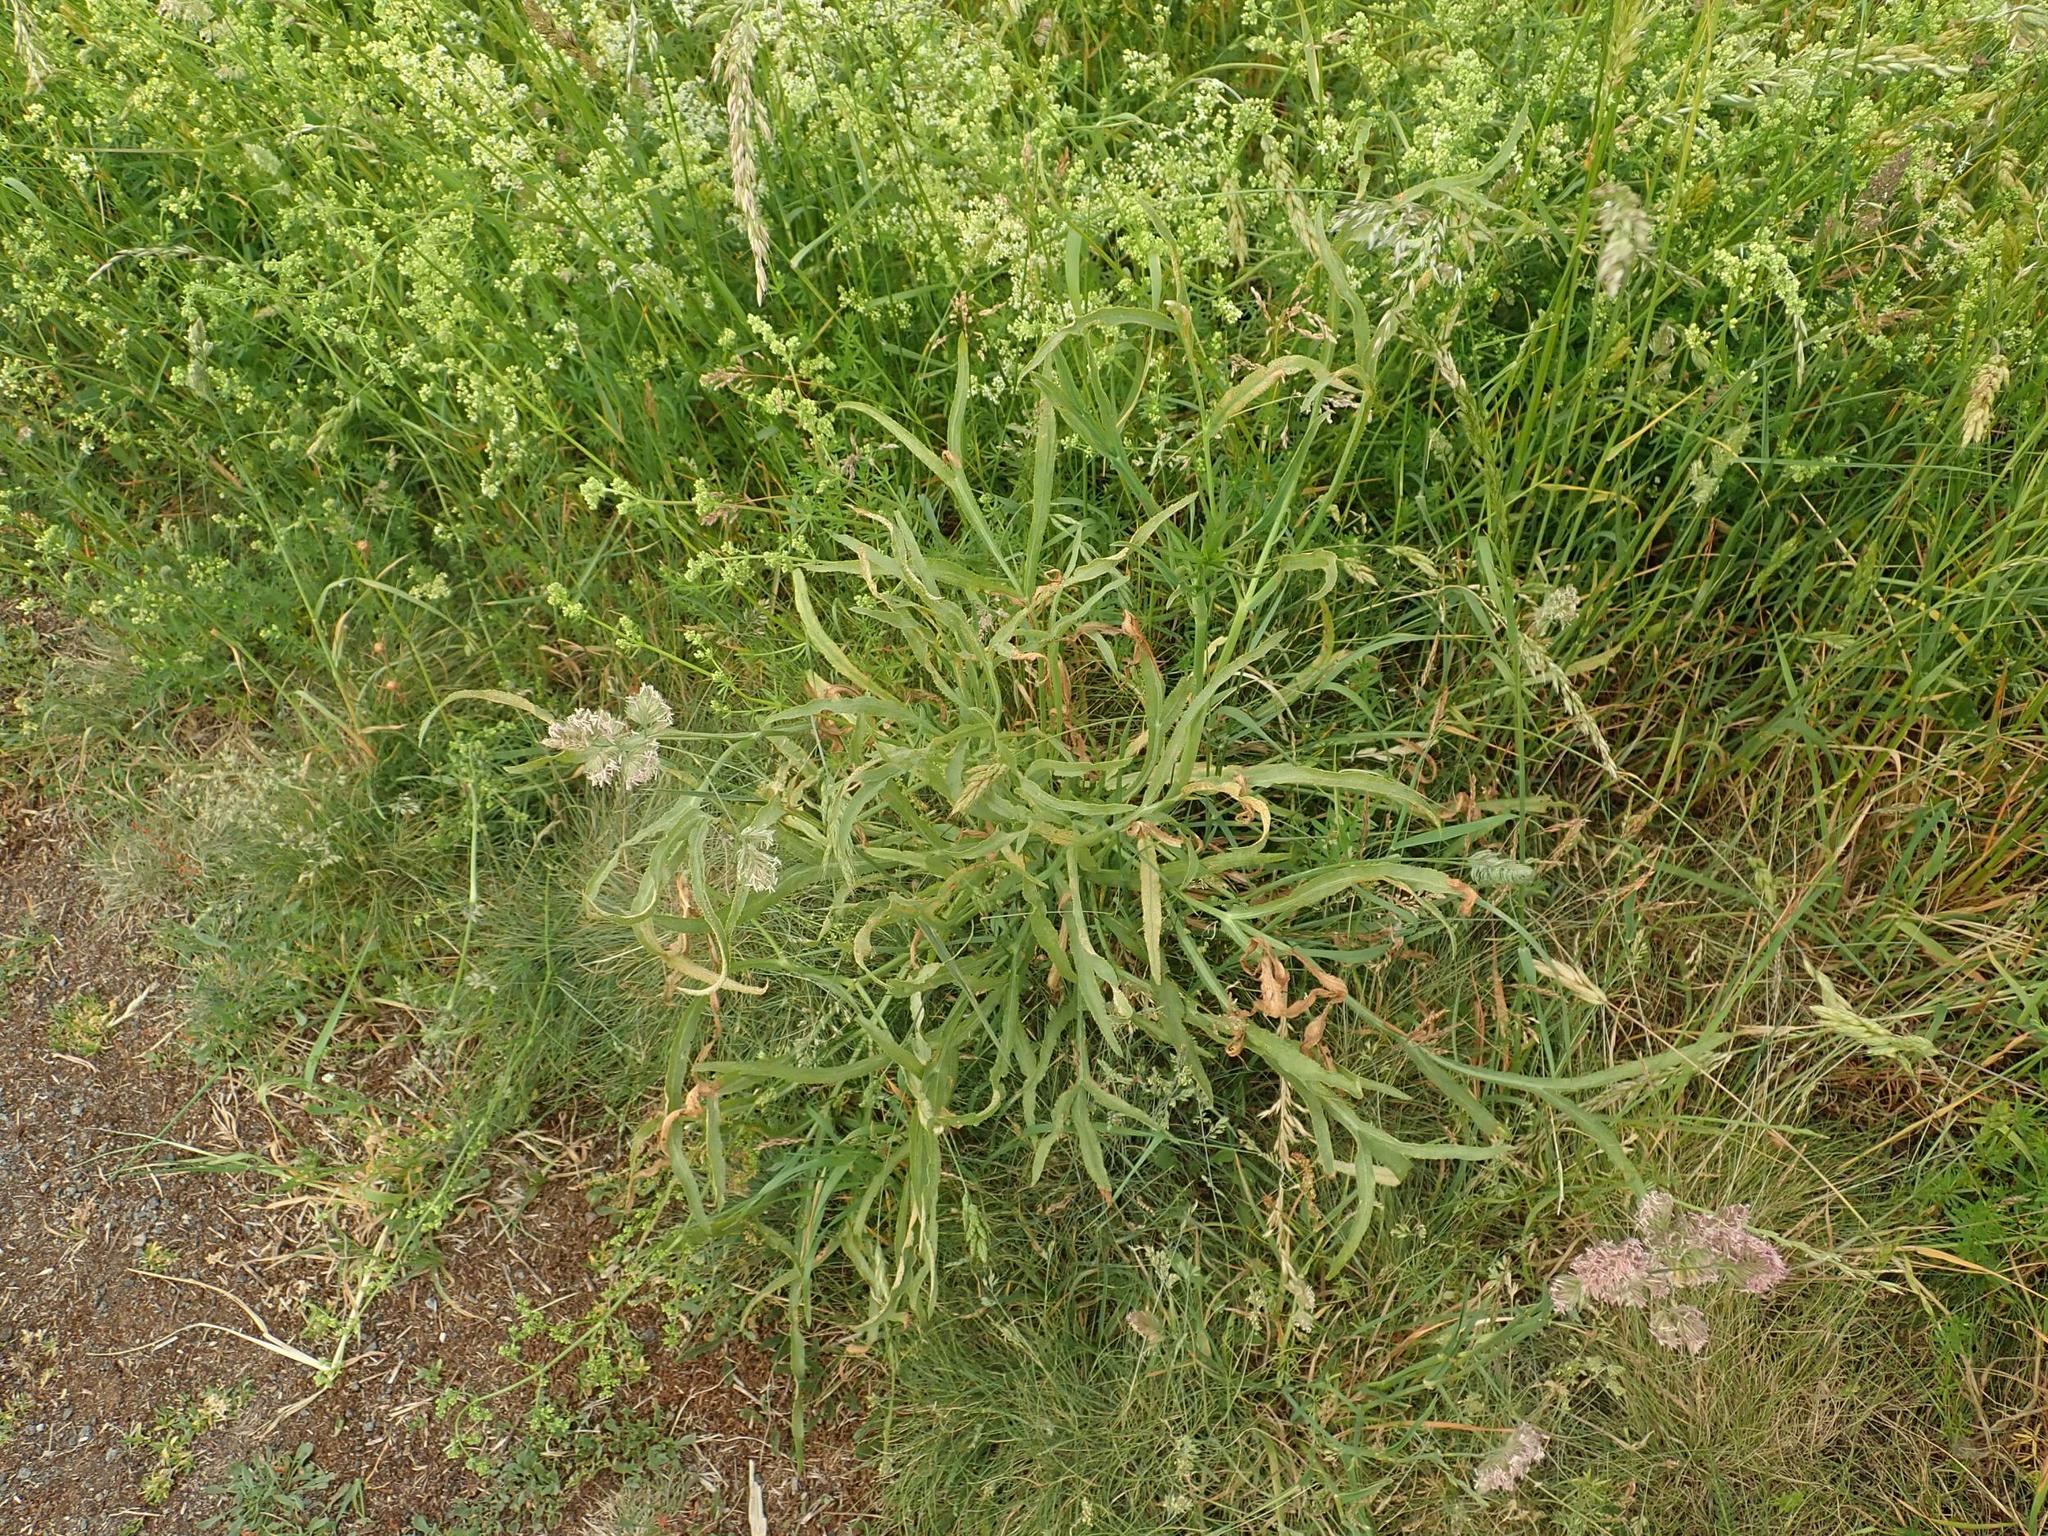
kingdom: Plantae
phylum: Tracheophyta
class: Magnoliopsida
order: Apiales
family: Apiaceae
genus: Falcaria
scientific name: Falcaria vulgaris
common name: Longleaf
